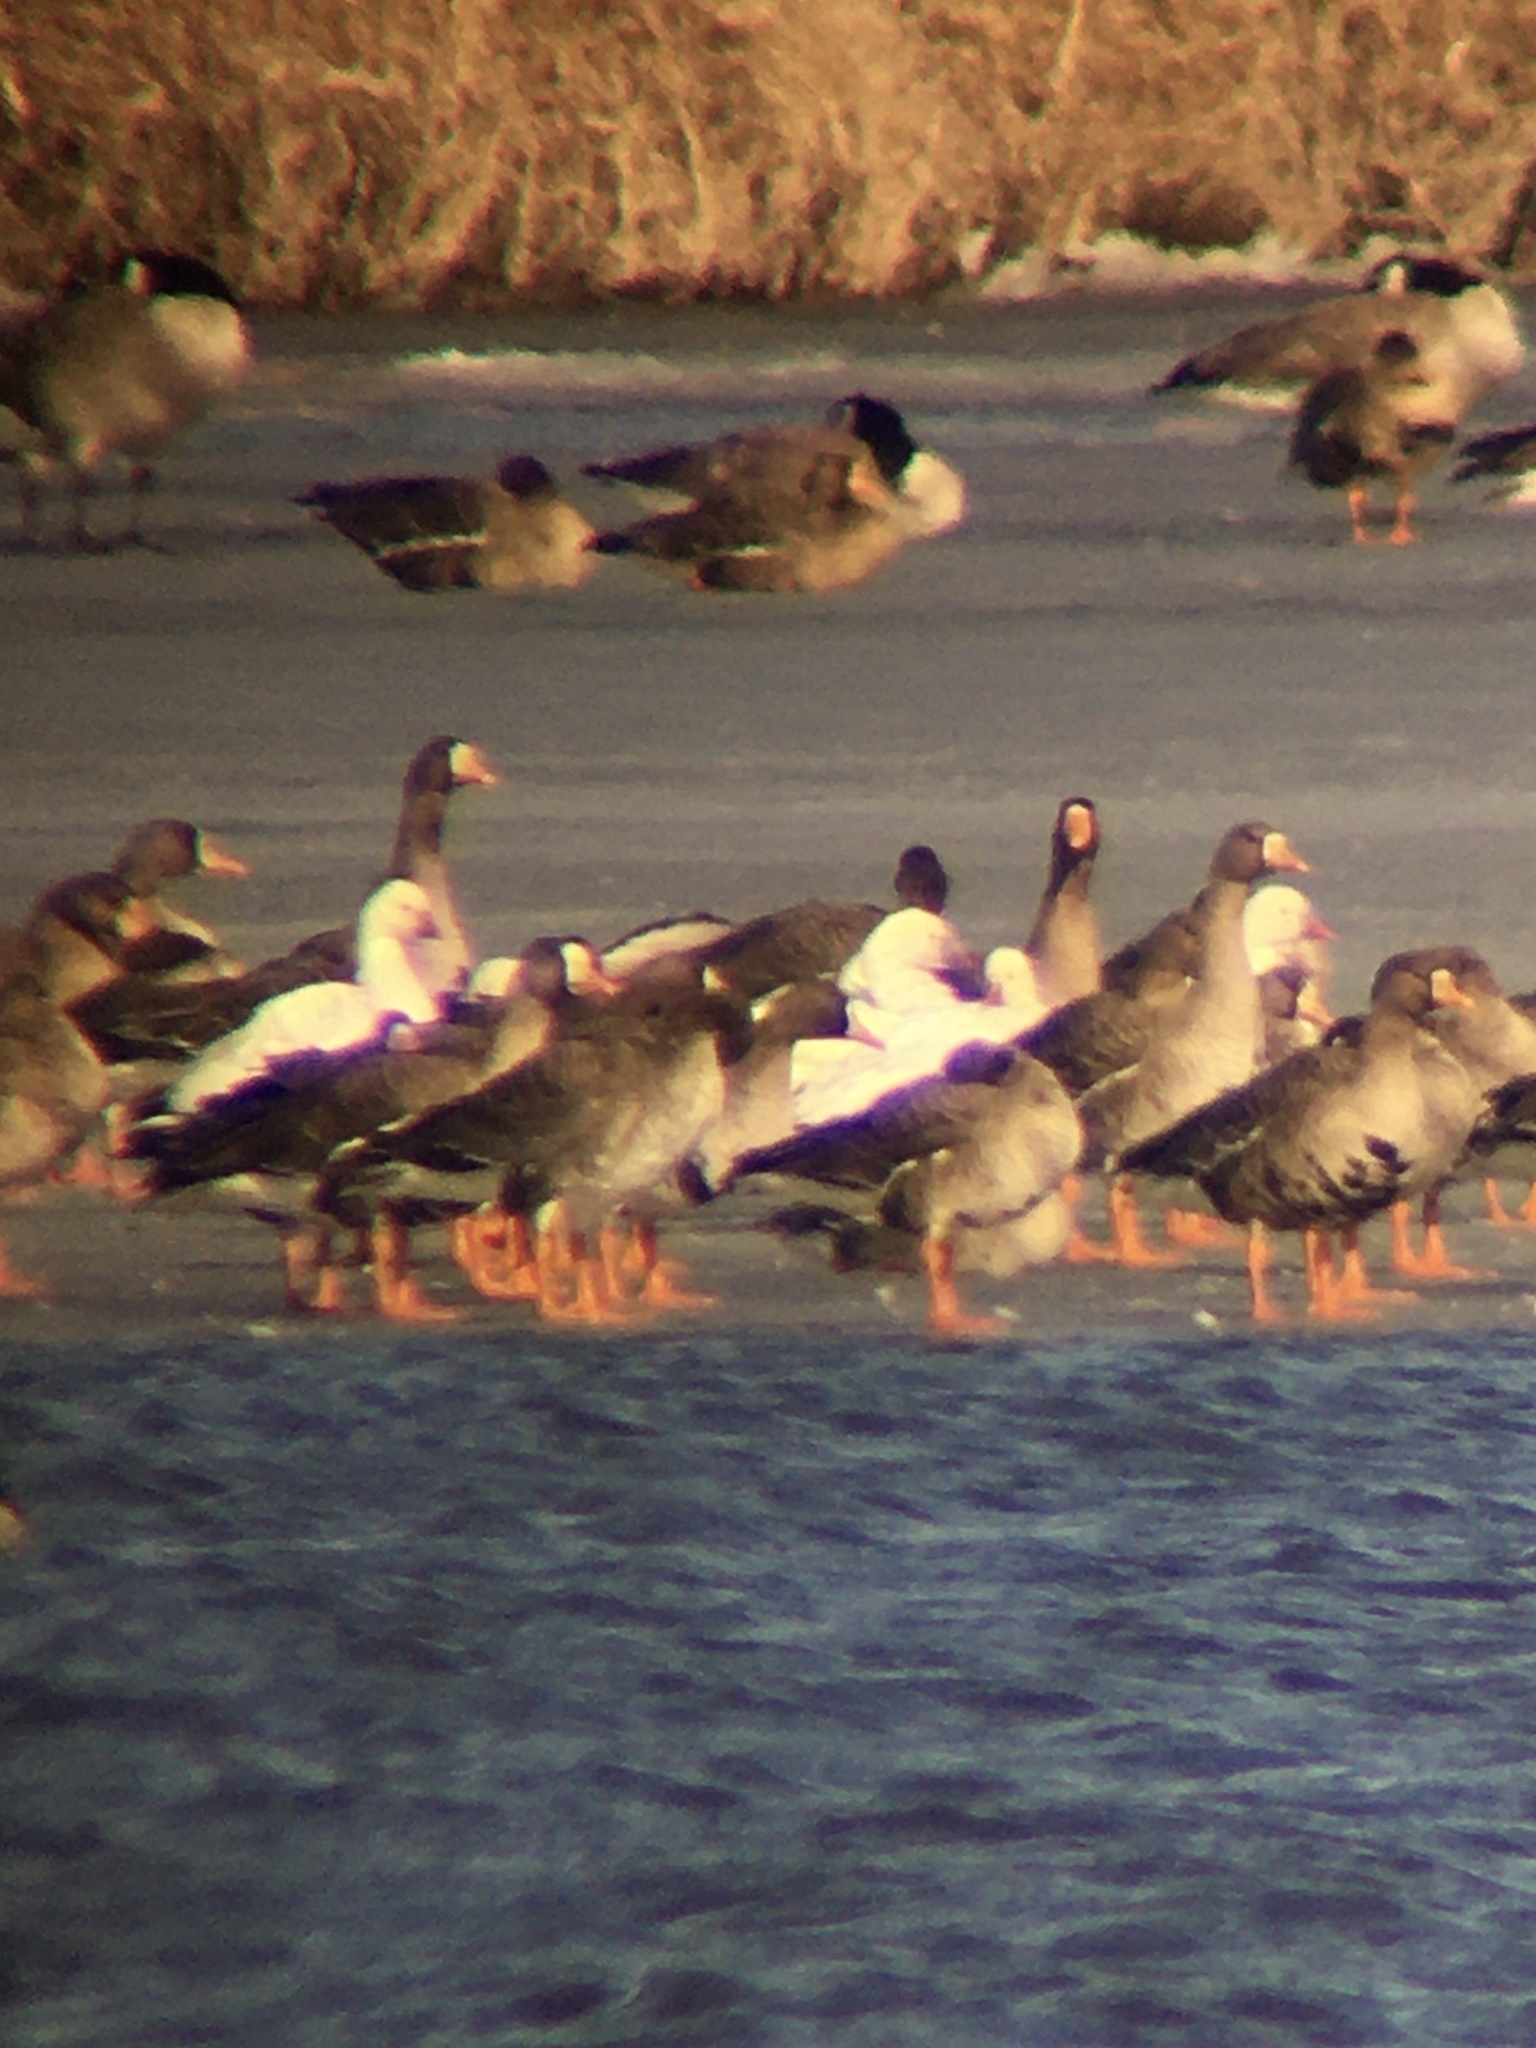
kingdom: Animalia
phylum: Chordata
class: Aves
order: Anseriformes
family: Anatidae
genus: Anser
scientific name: Anser rossii
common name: Ross's goose
